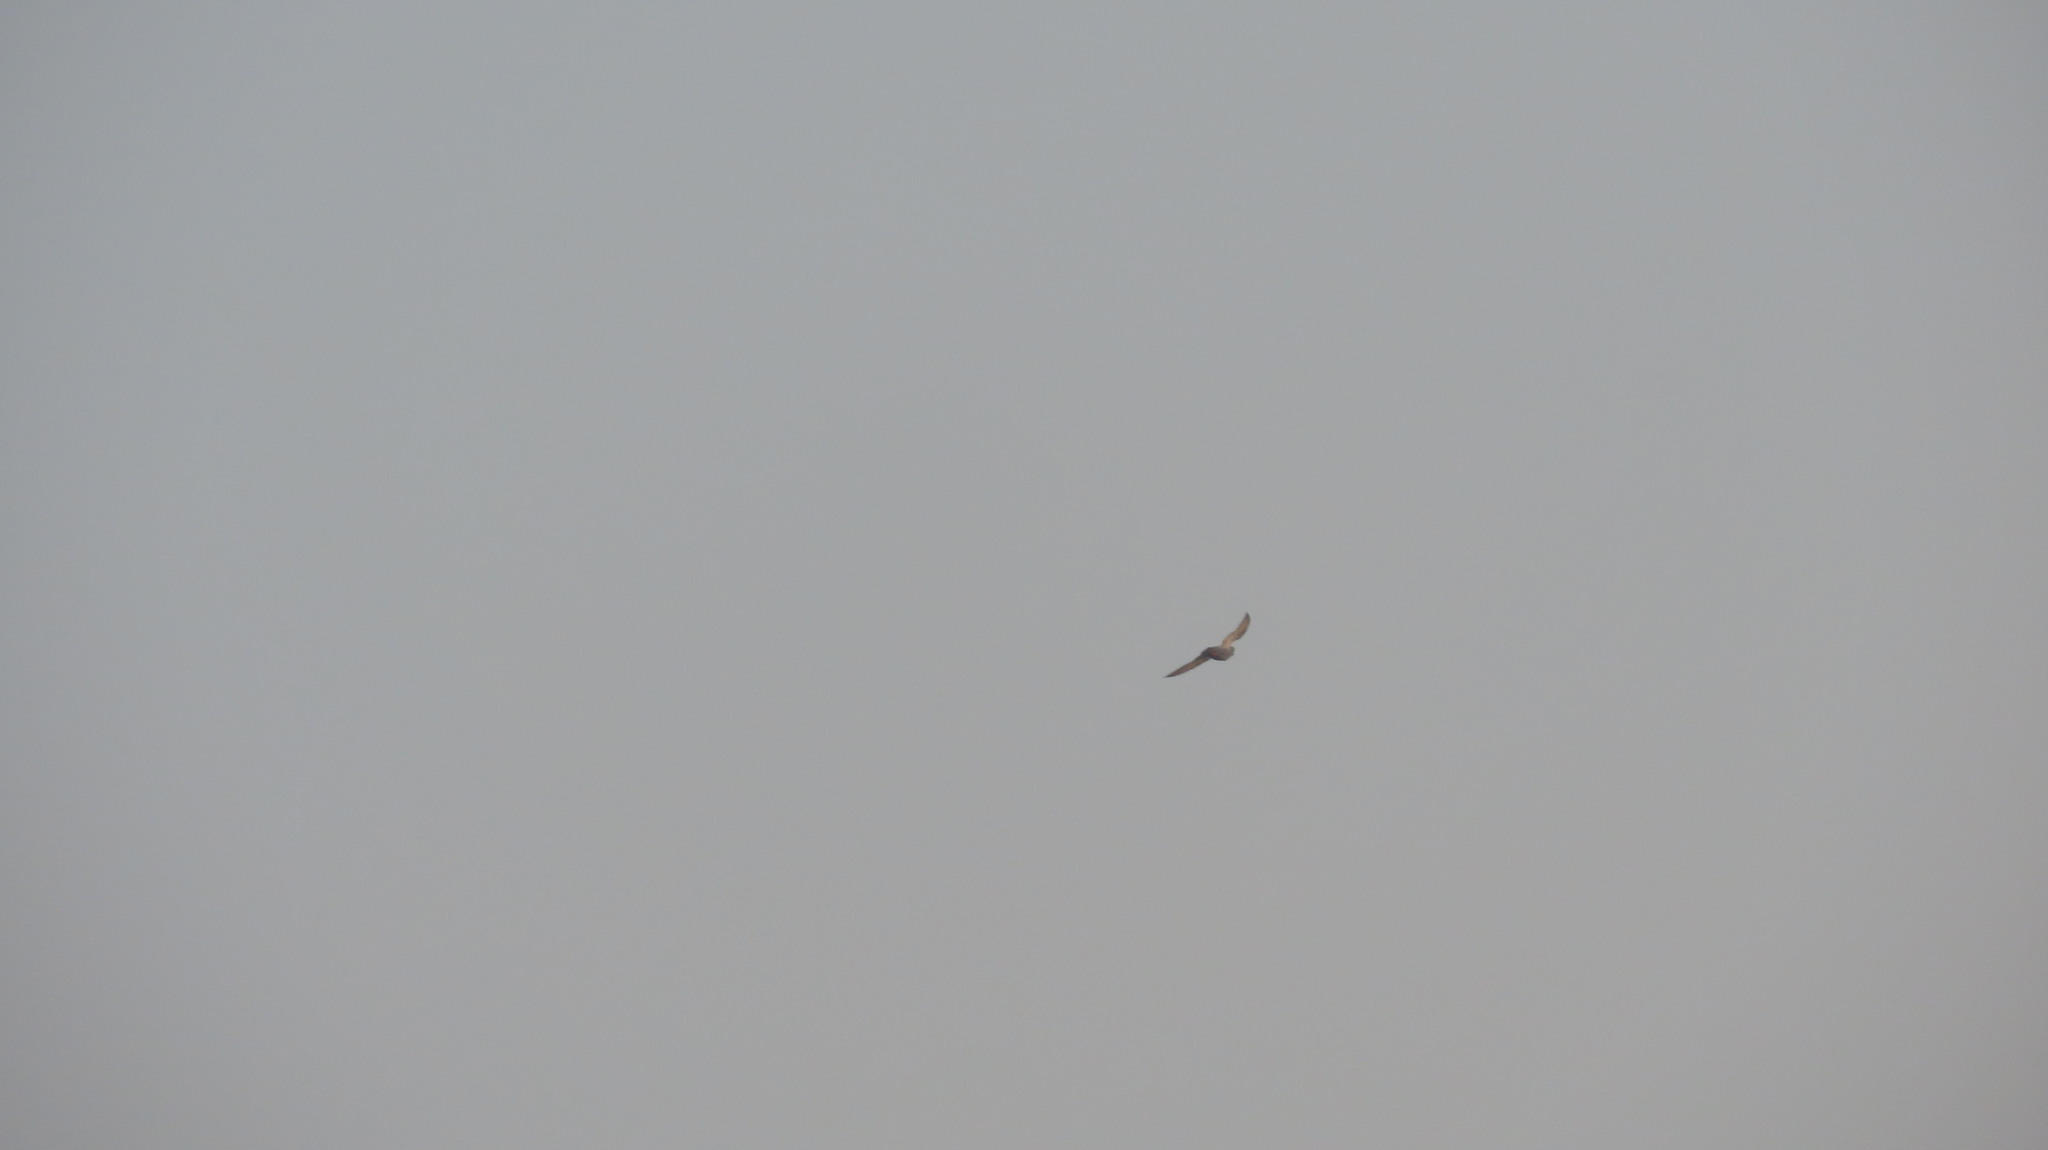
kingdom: Animalia
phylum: Chordata
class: Aves
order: Columbiformes
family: Columbidae
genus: Columba
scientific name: Columba livia
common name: Rock pigeon
